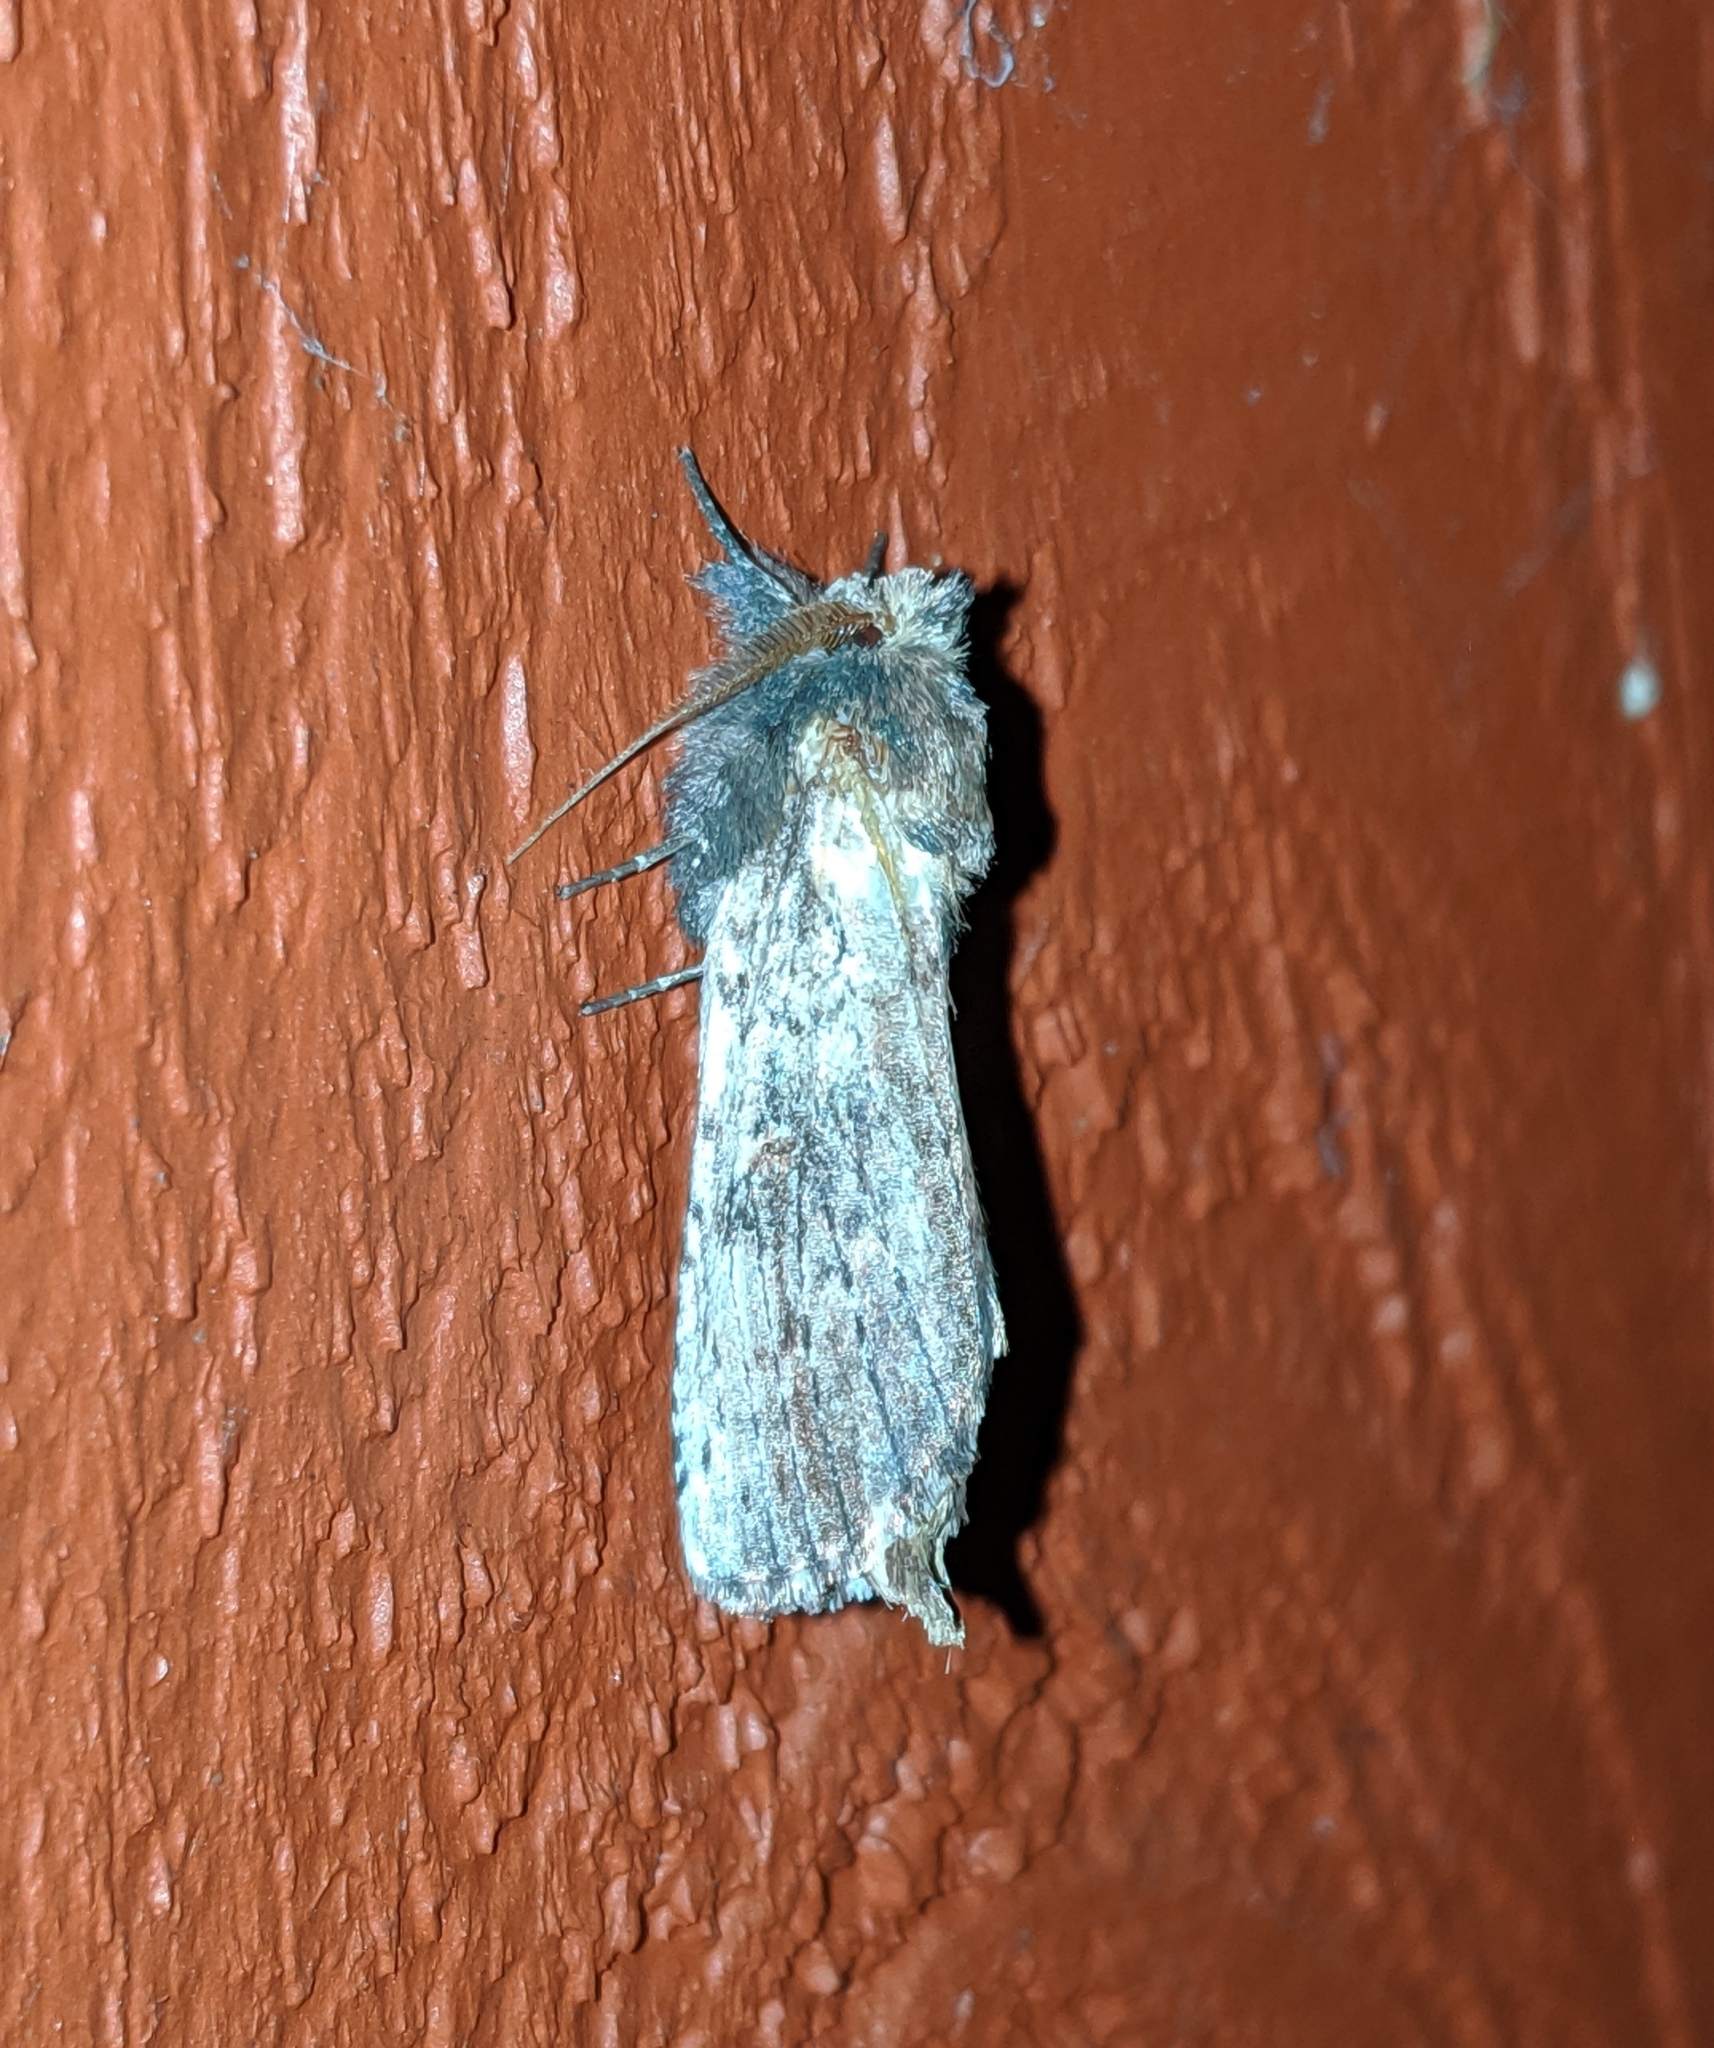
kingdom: Animalia
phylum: Arthropoda
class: Insecta
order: Lepidoptera
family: Notodontidae
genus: Schizura
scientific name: Schizura ipomaeae
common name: Morning-glory prominent
